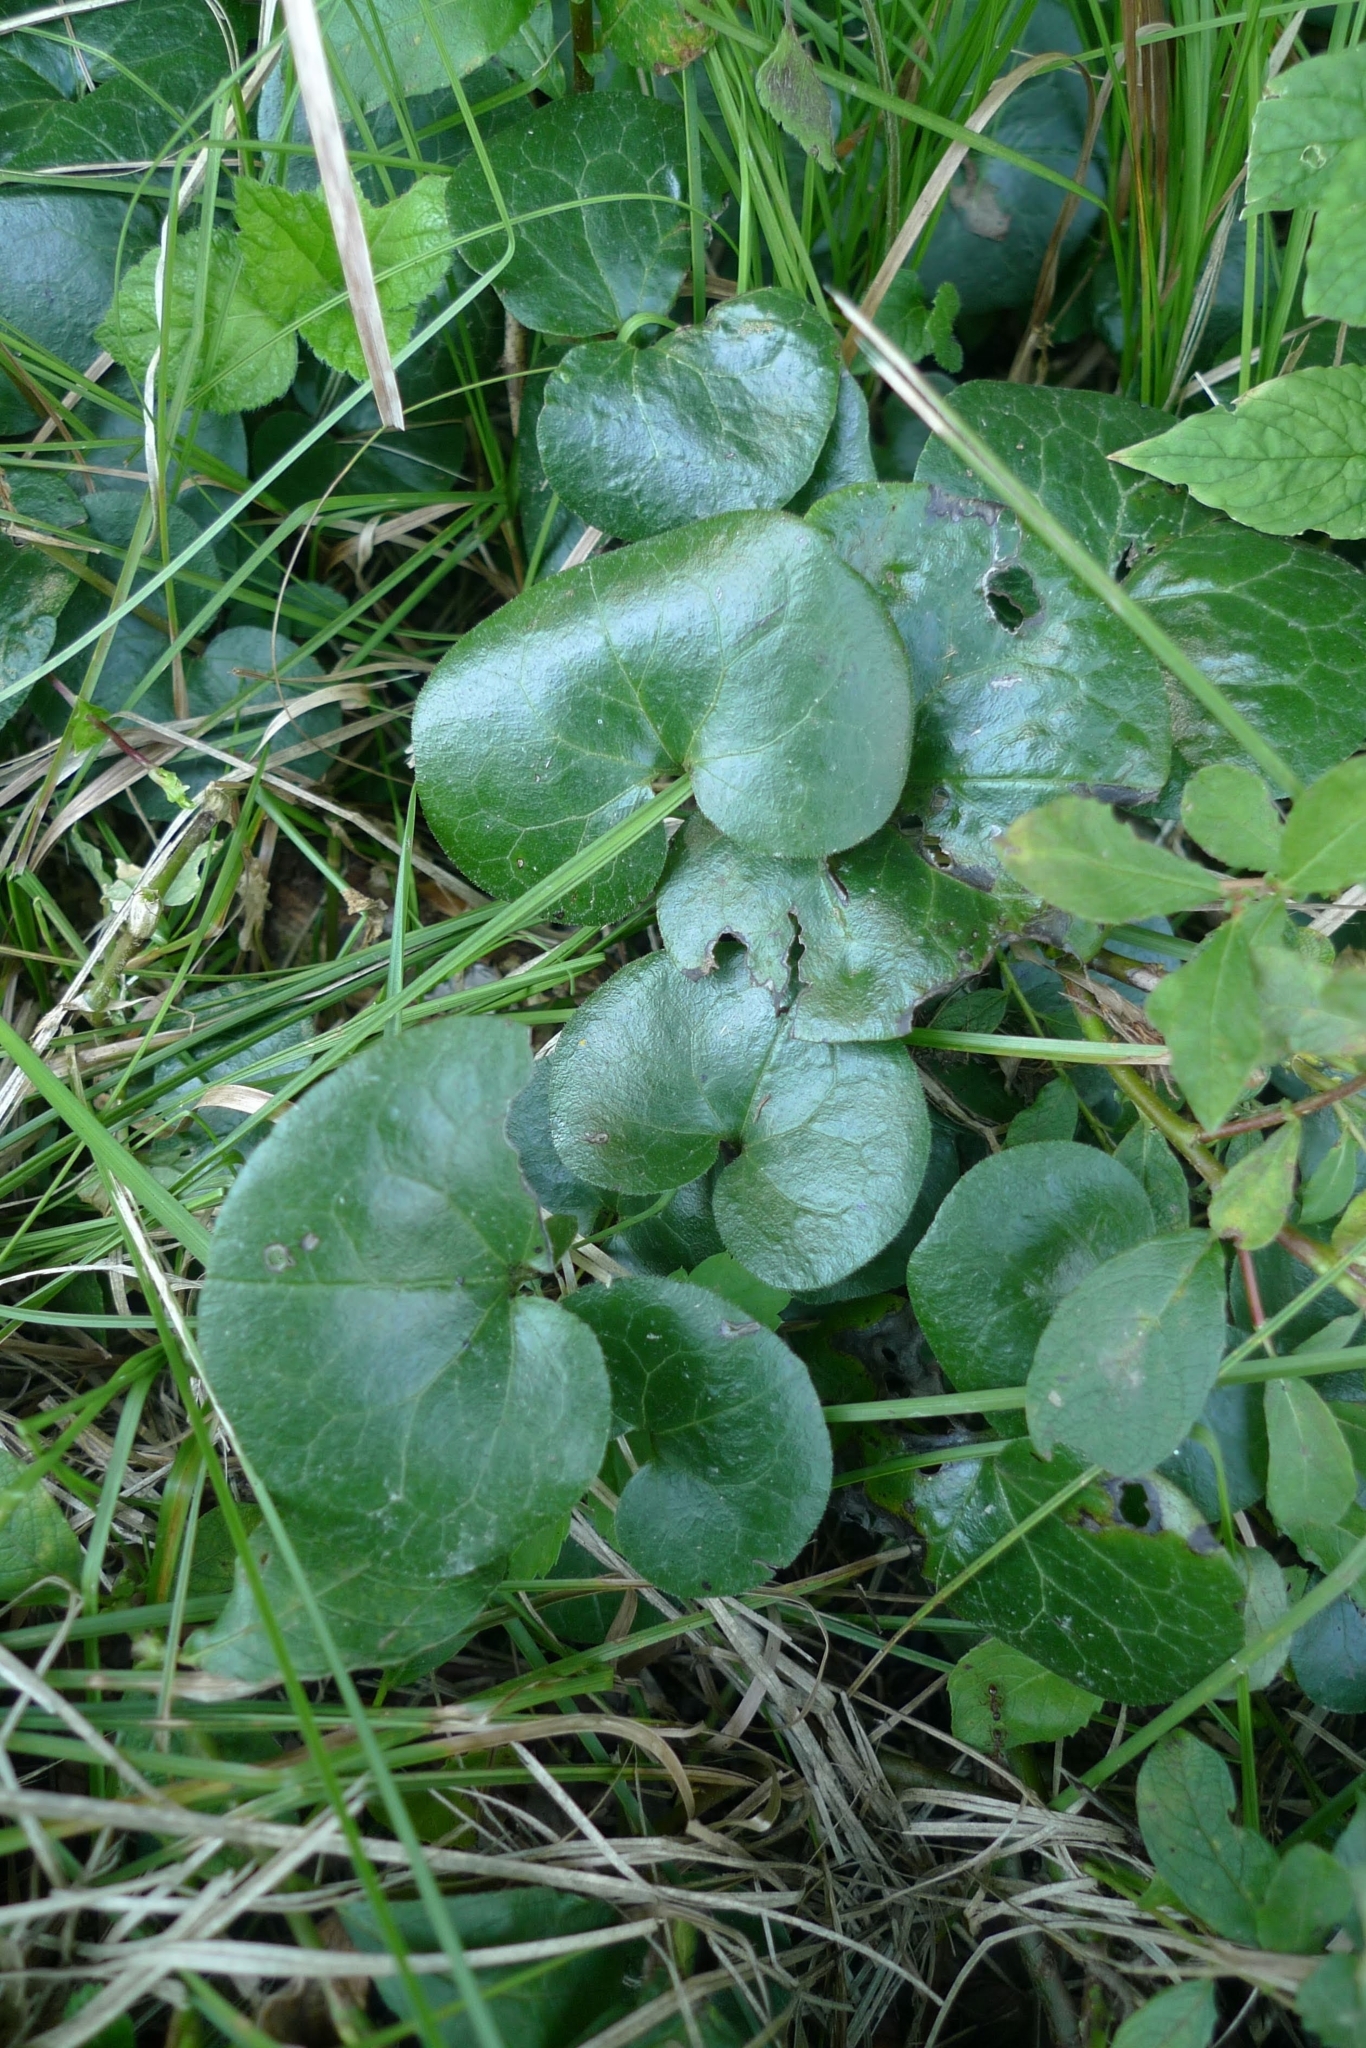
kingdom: Plantae
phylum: Tracheophyta
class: Magnoliopsida
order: Piperales
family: Aristolochiaceae
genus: Asarum
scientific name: Asarum europaeum
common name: Asarabacca
